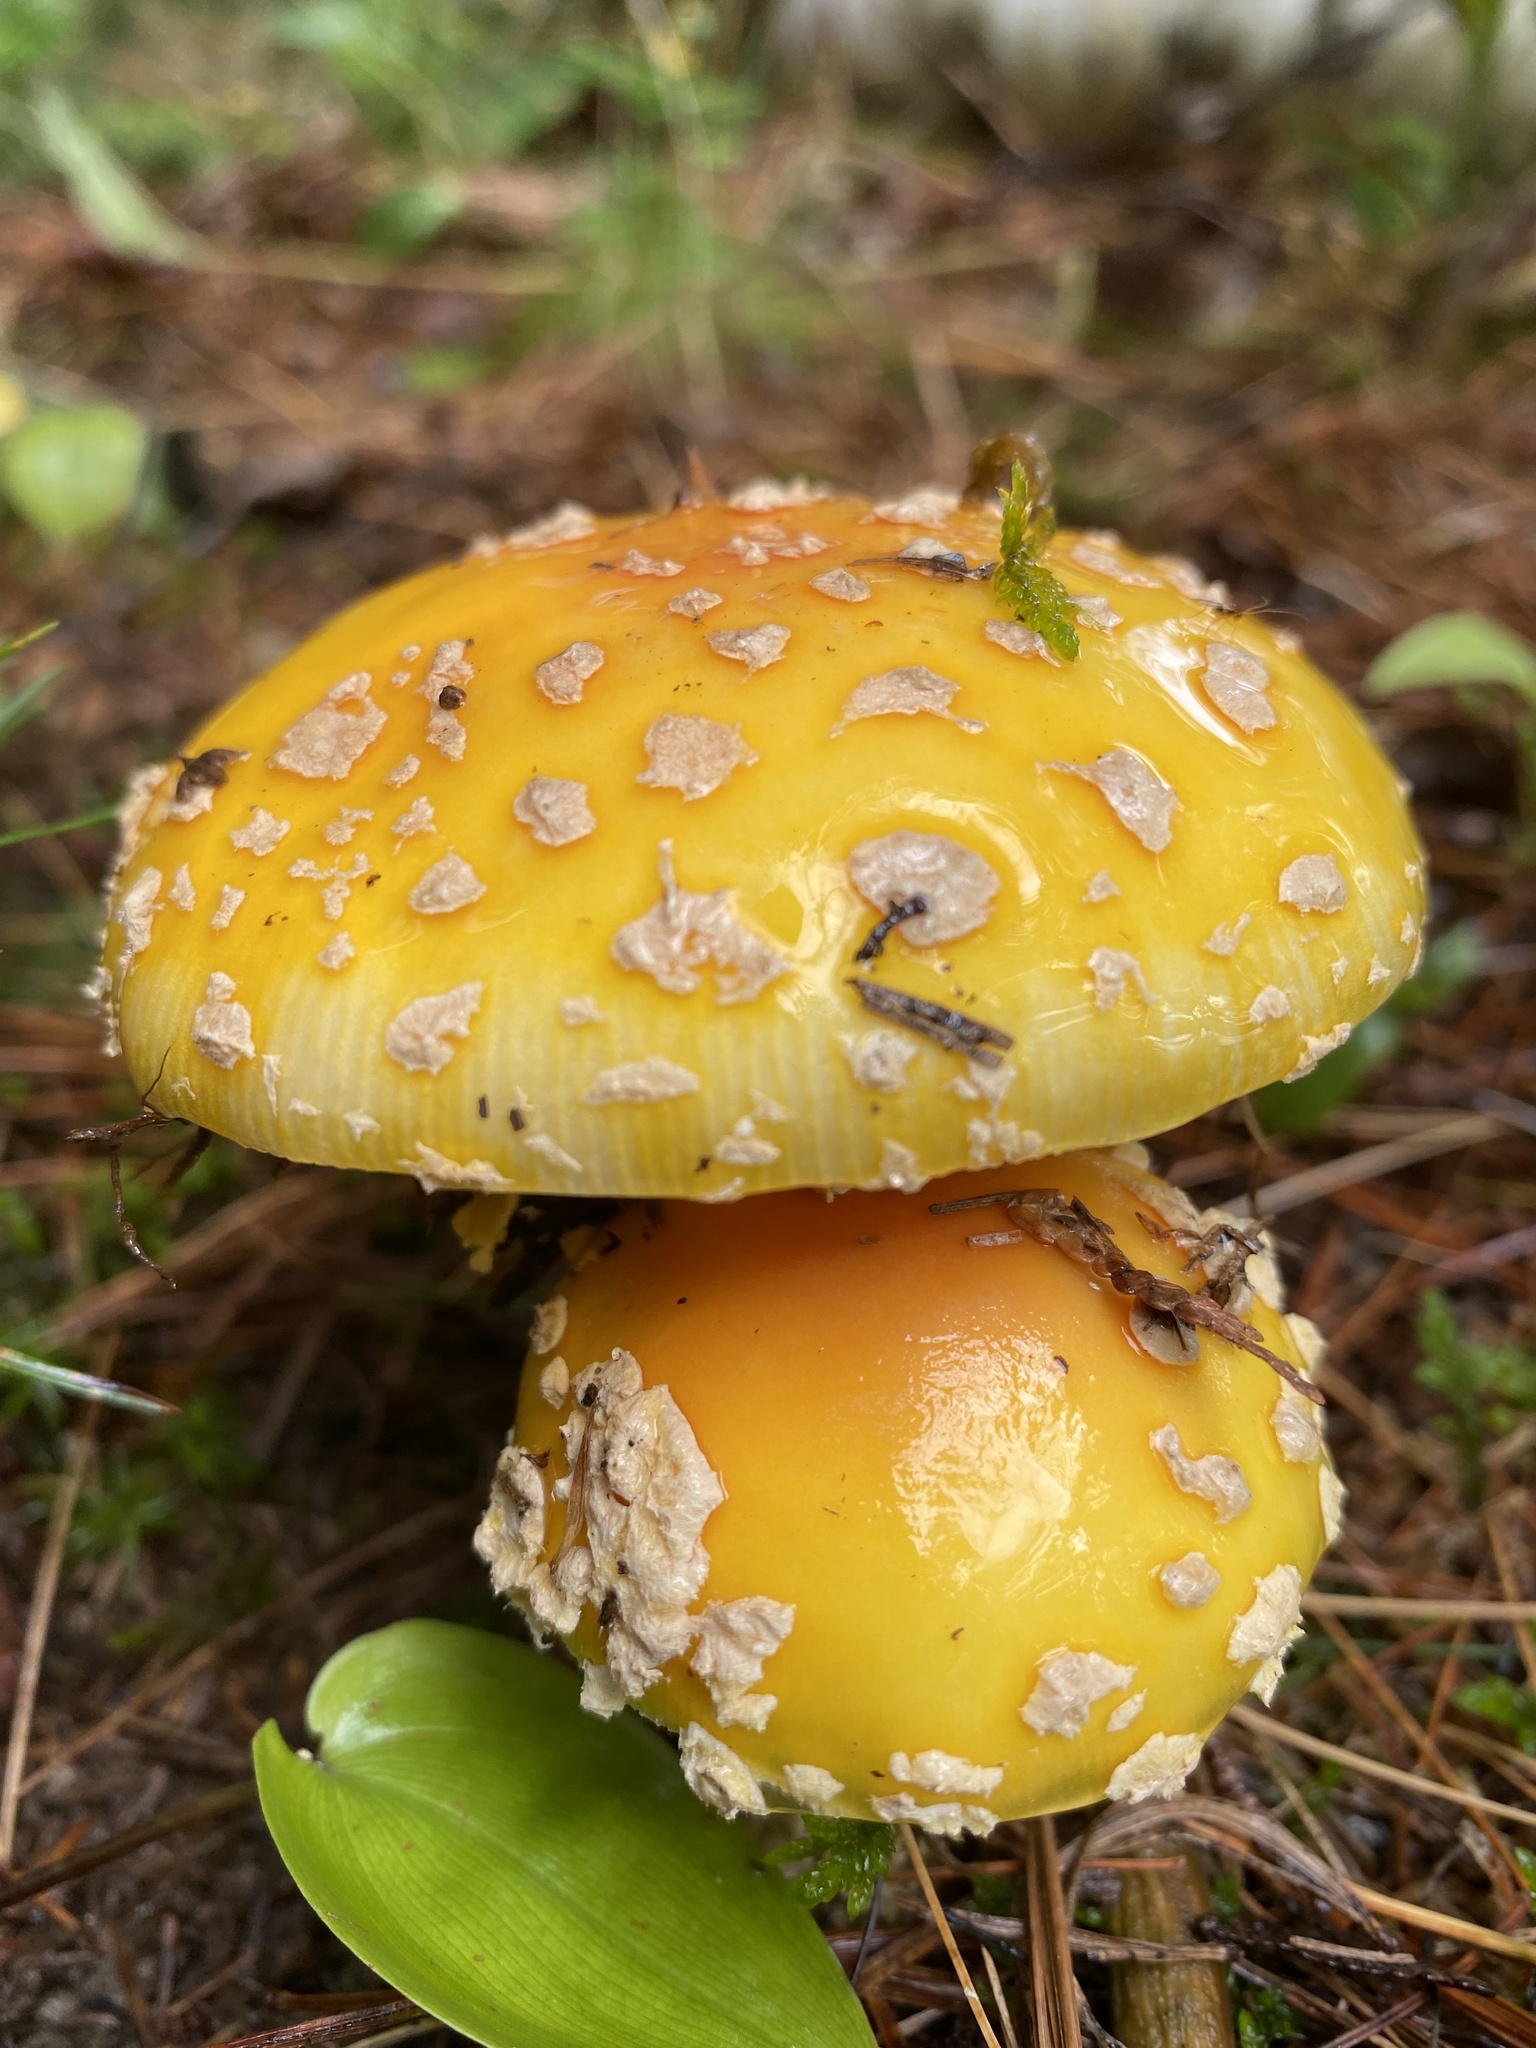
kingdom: Fungi
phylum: Basidiomycota
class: Agaricomycetes
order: Agaricales
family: Amanitaceae
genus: Amanita
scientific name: Amanita muscaria
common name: Fly agaric
